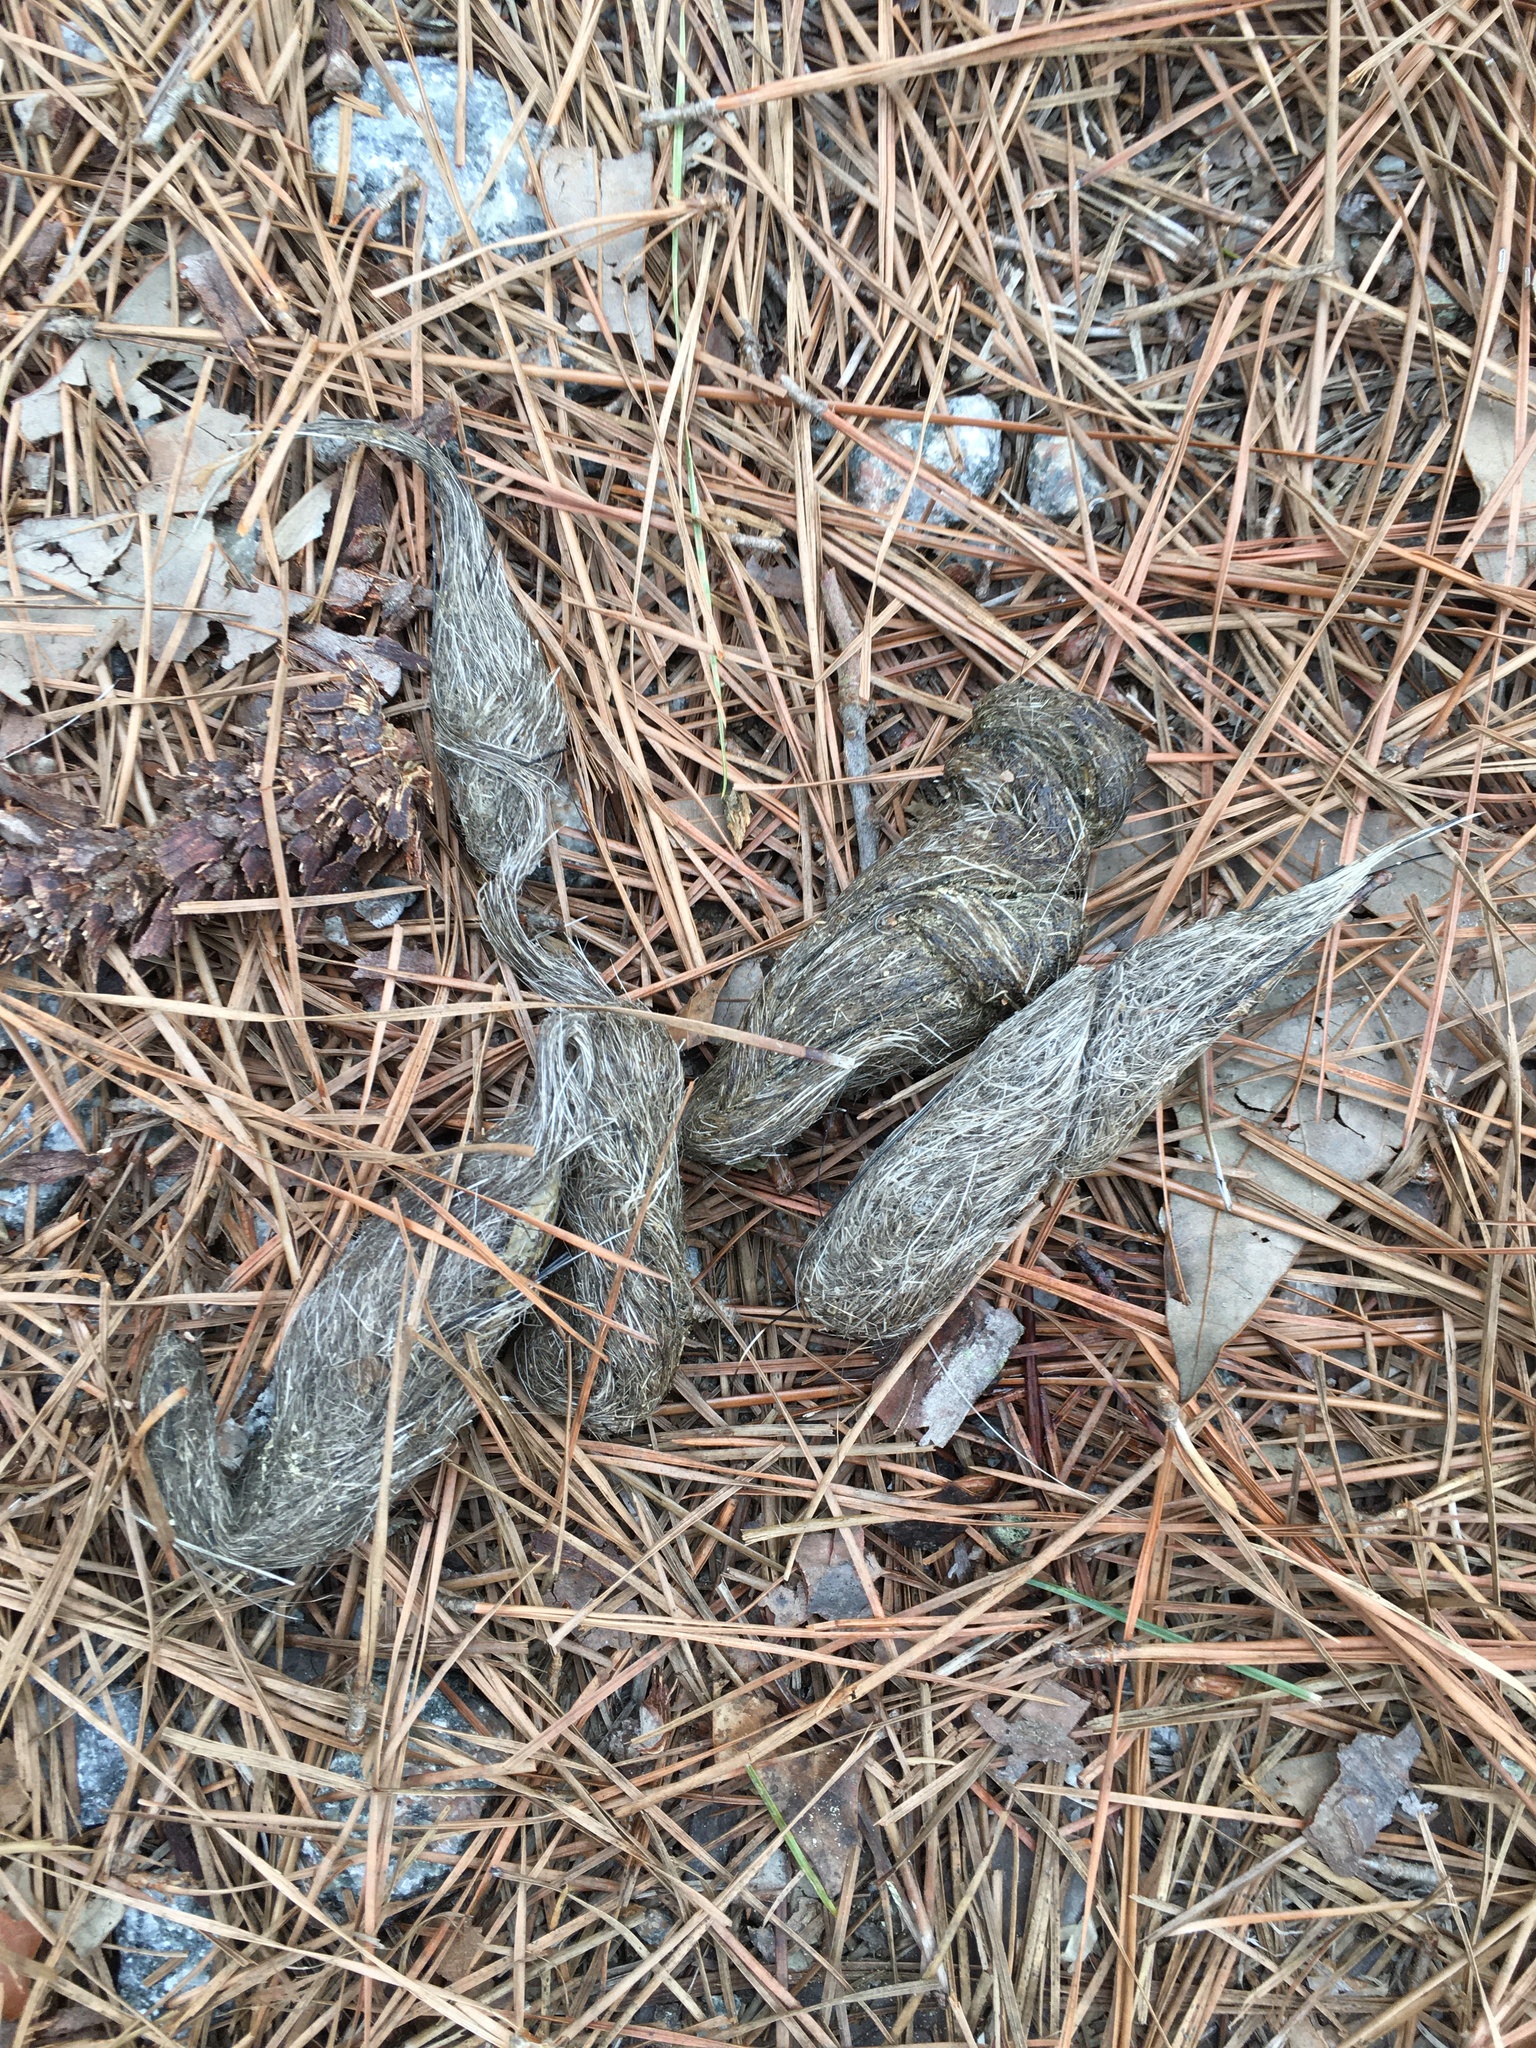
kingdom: Animalia
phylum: Chordata
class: Mammalia
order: Carnivora
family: Canidae
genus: Canis
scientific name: Canis latrans
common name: Coyote
